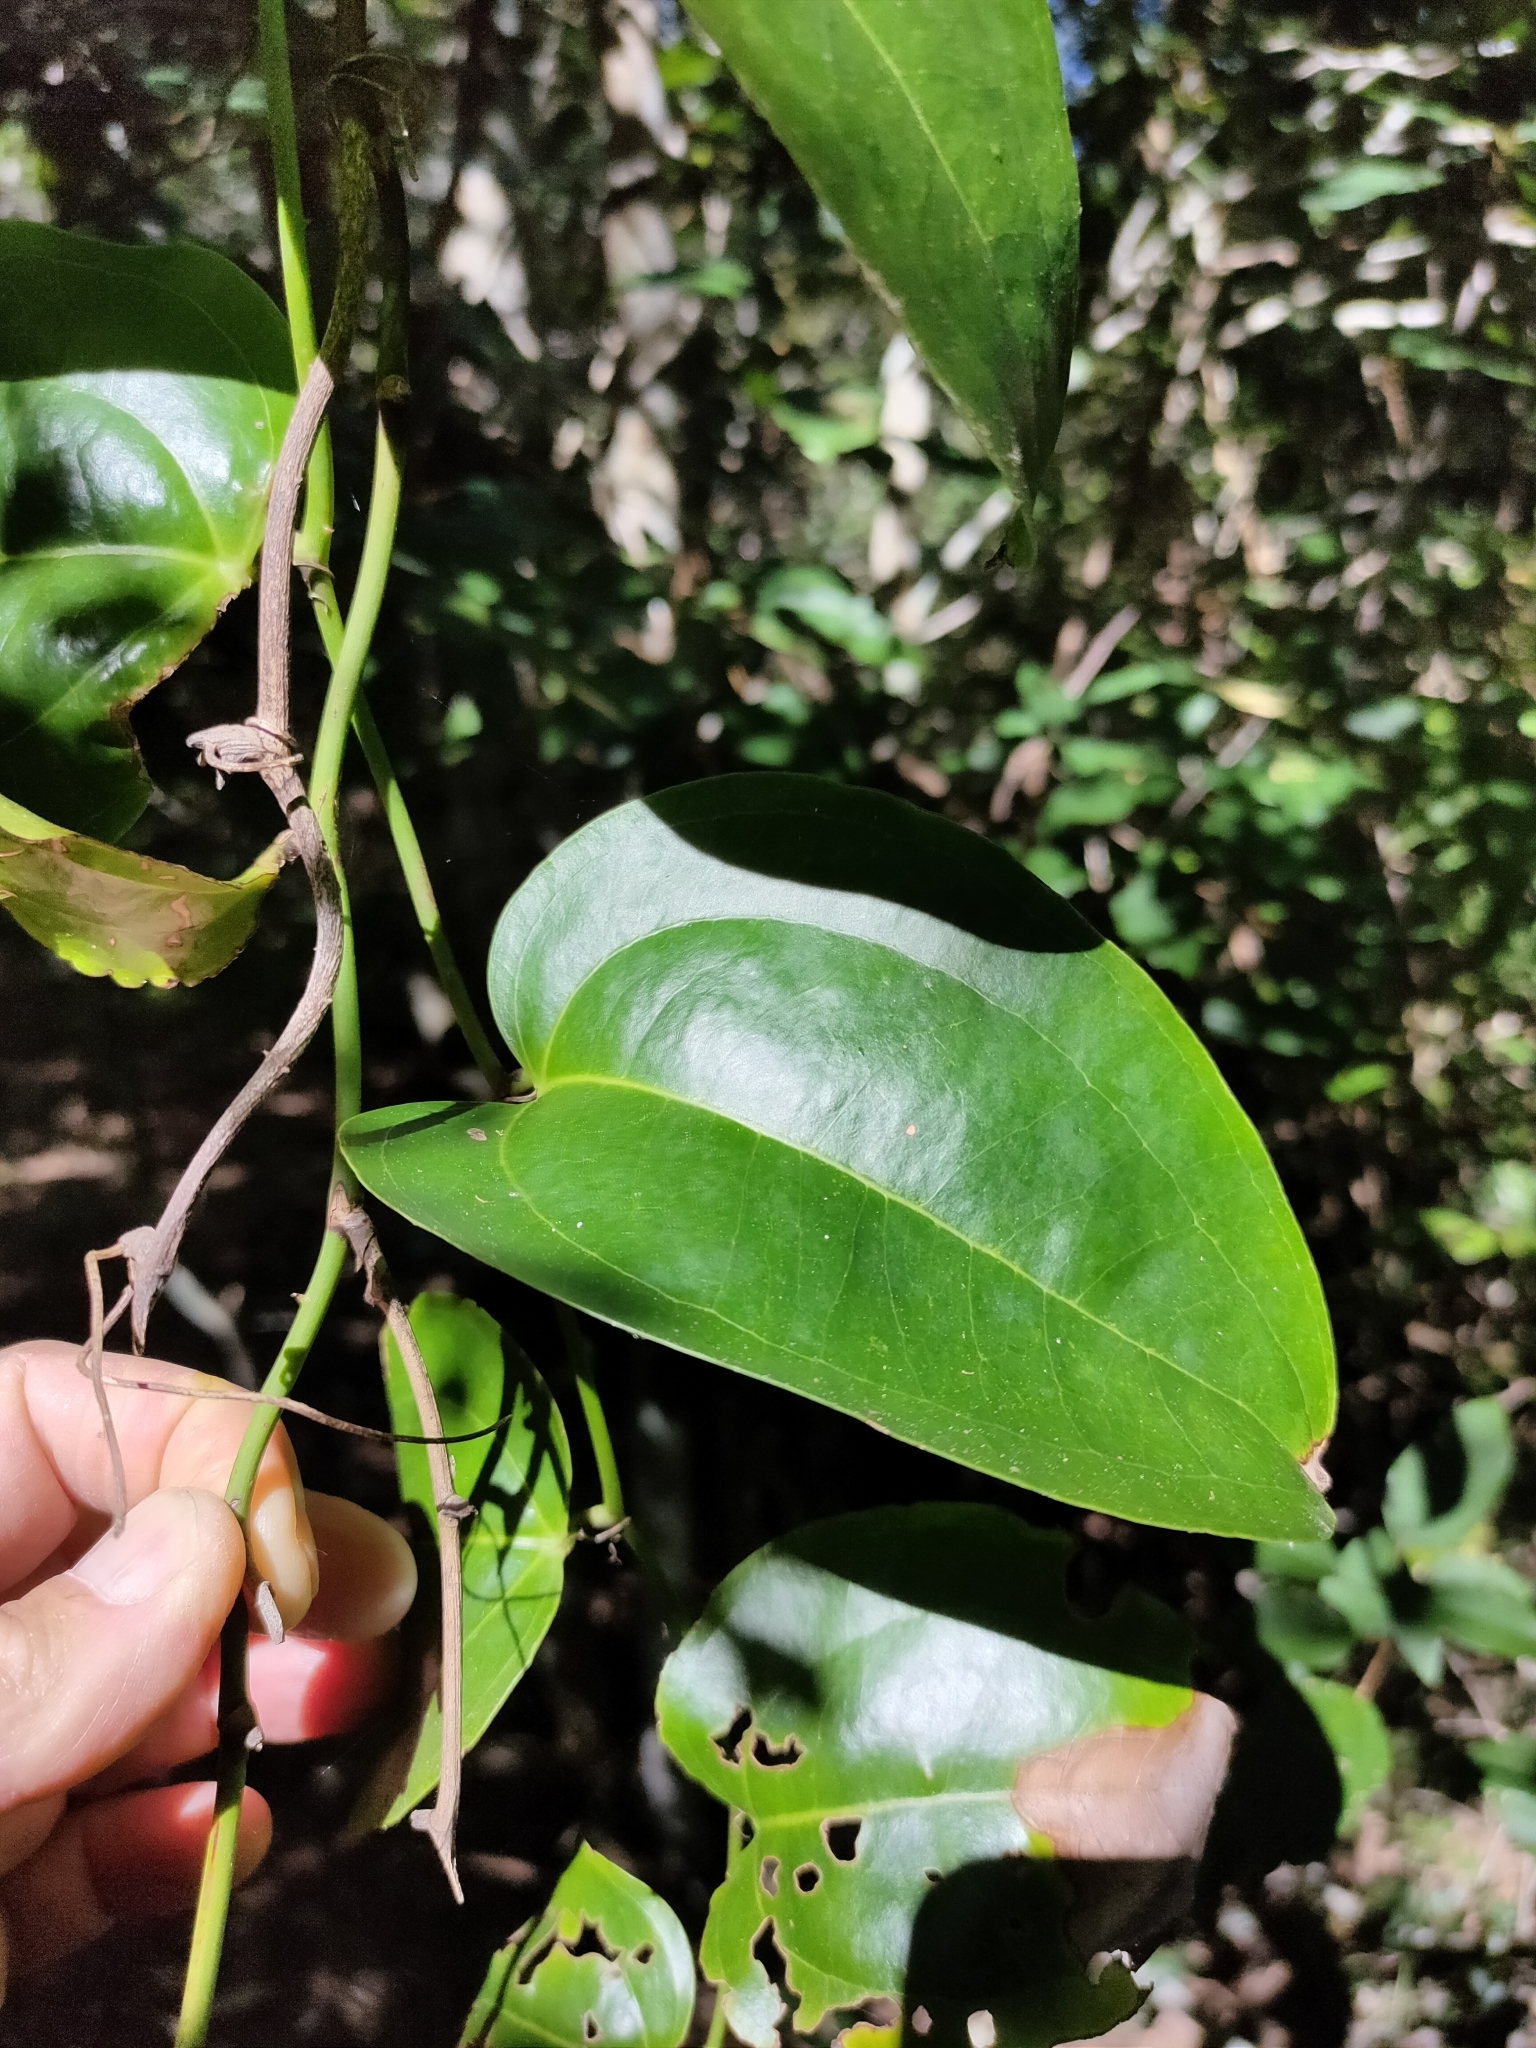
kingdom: Plantae
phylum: Tracheophyta
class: Liliopsida
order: Liliales
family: Smilacaceae
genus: Smilax
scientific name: Smilax australis
